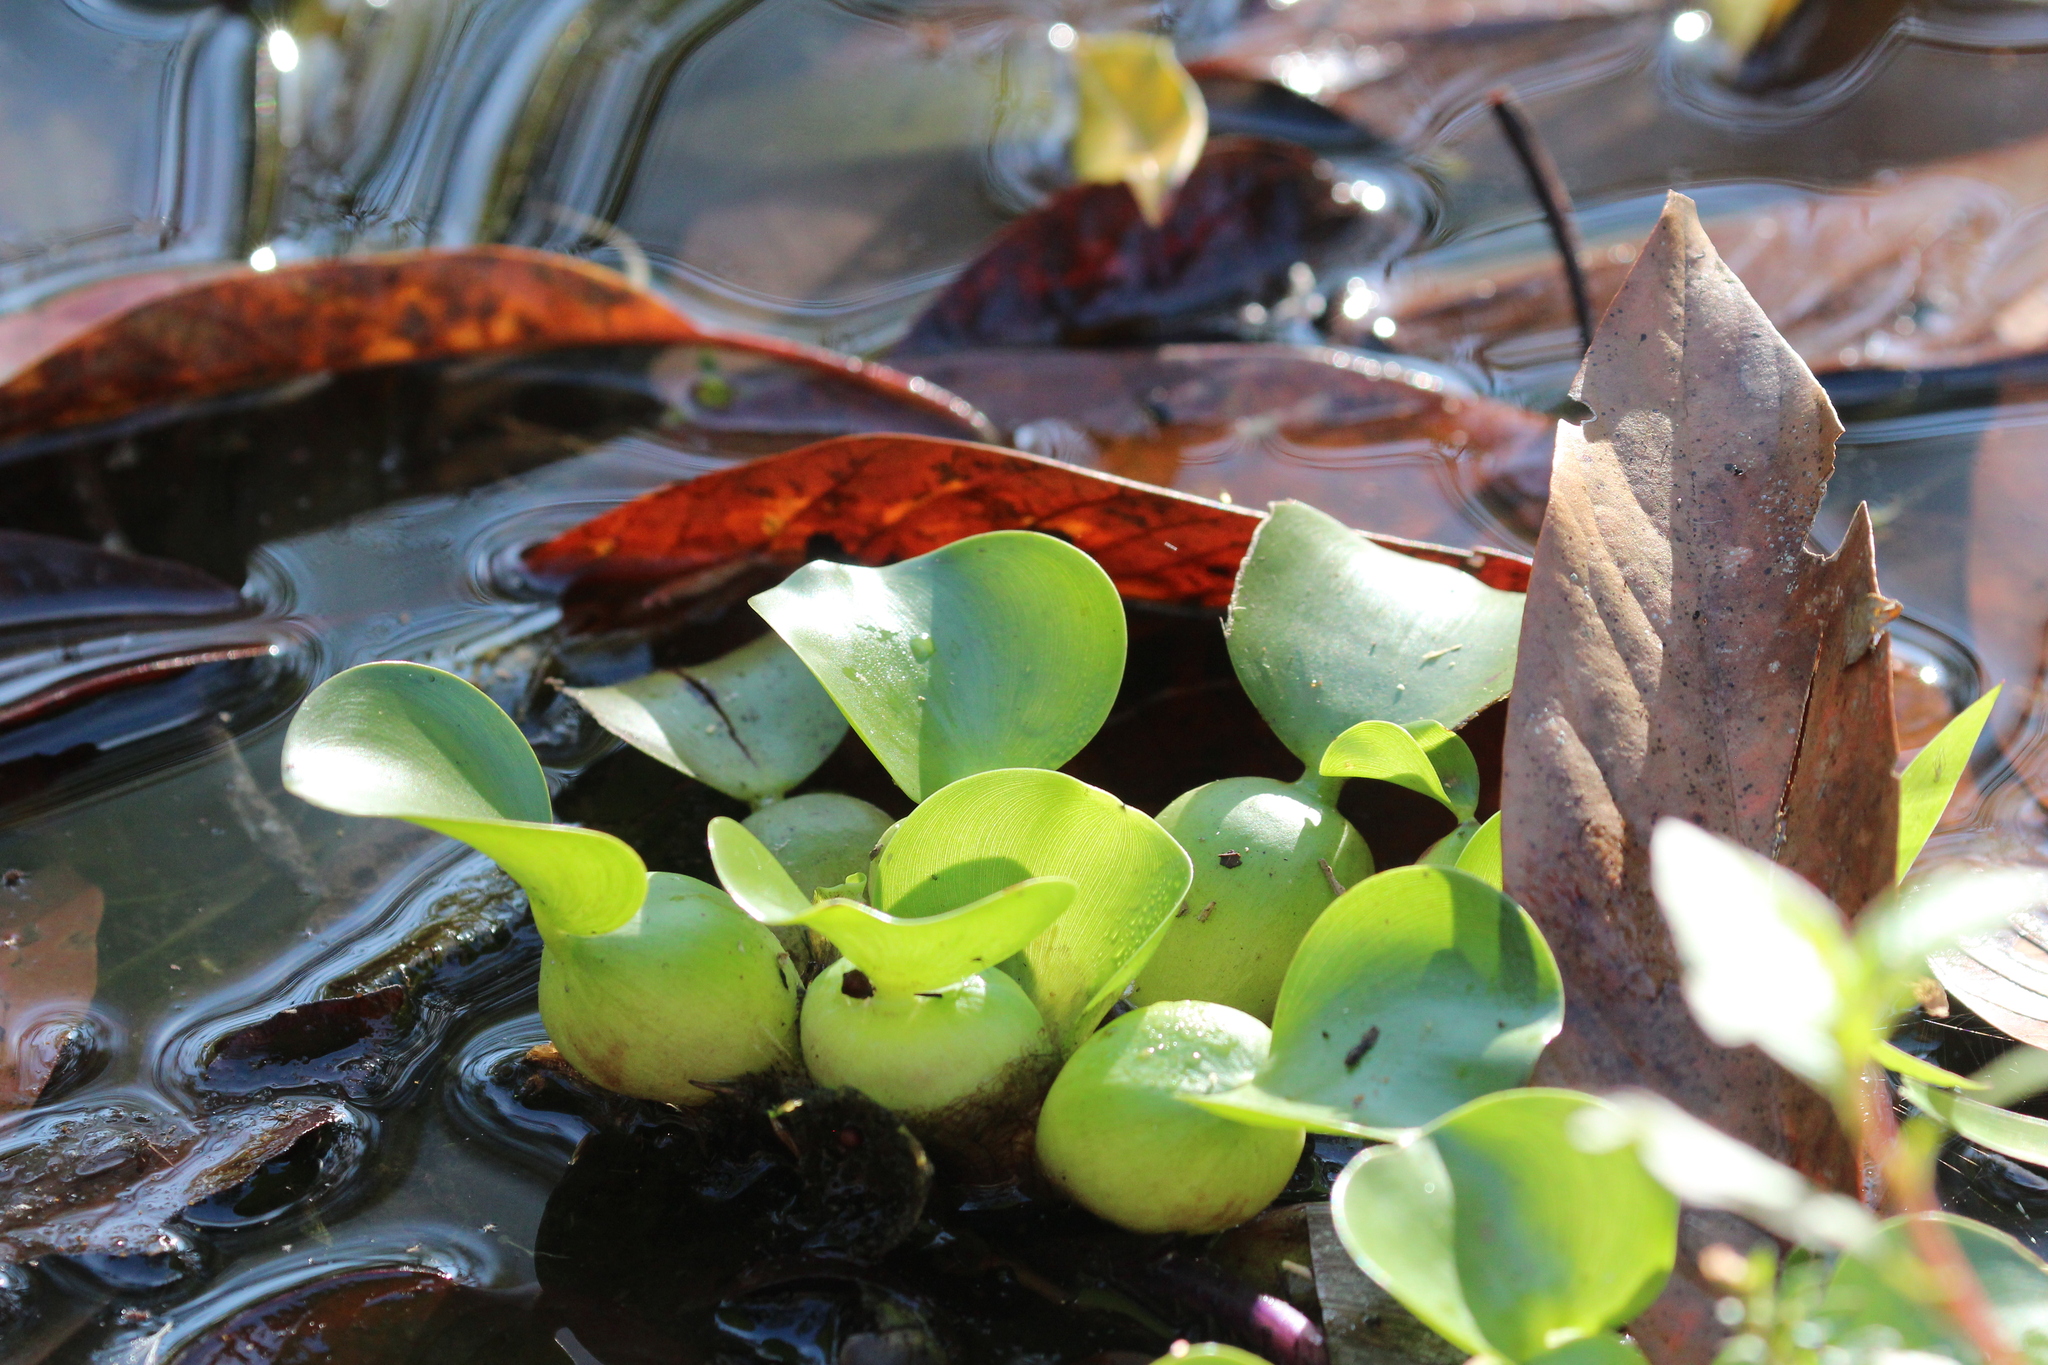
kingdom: Plantae
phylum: Tracheophyta
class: Liliopsida
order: Commelinales
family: Pontederiaceae
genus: Pontederia
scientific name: Pontederia crassipes
